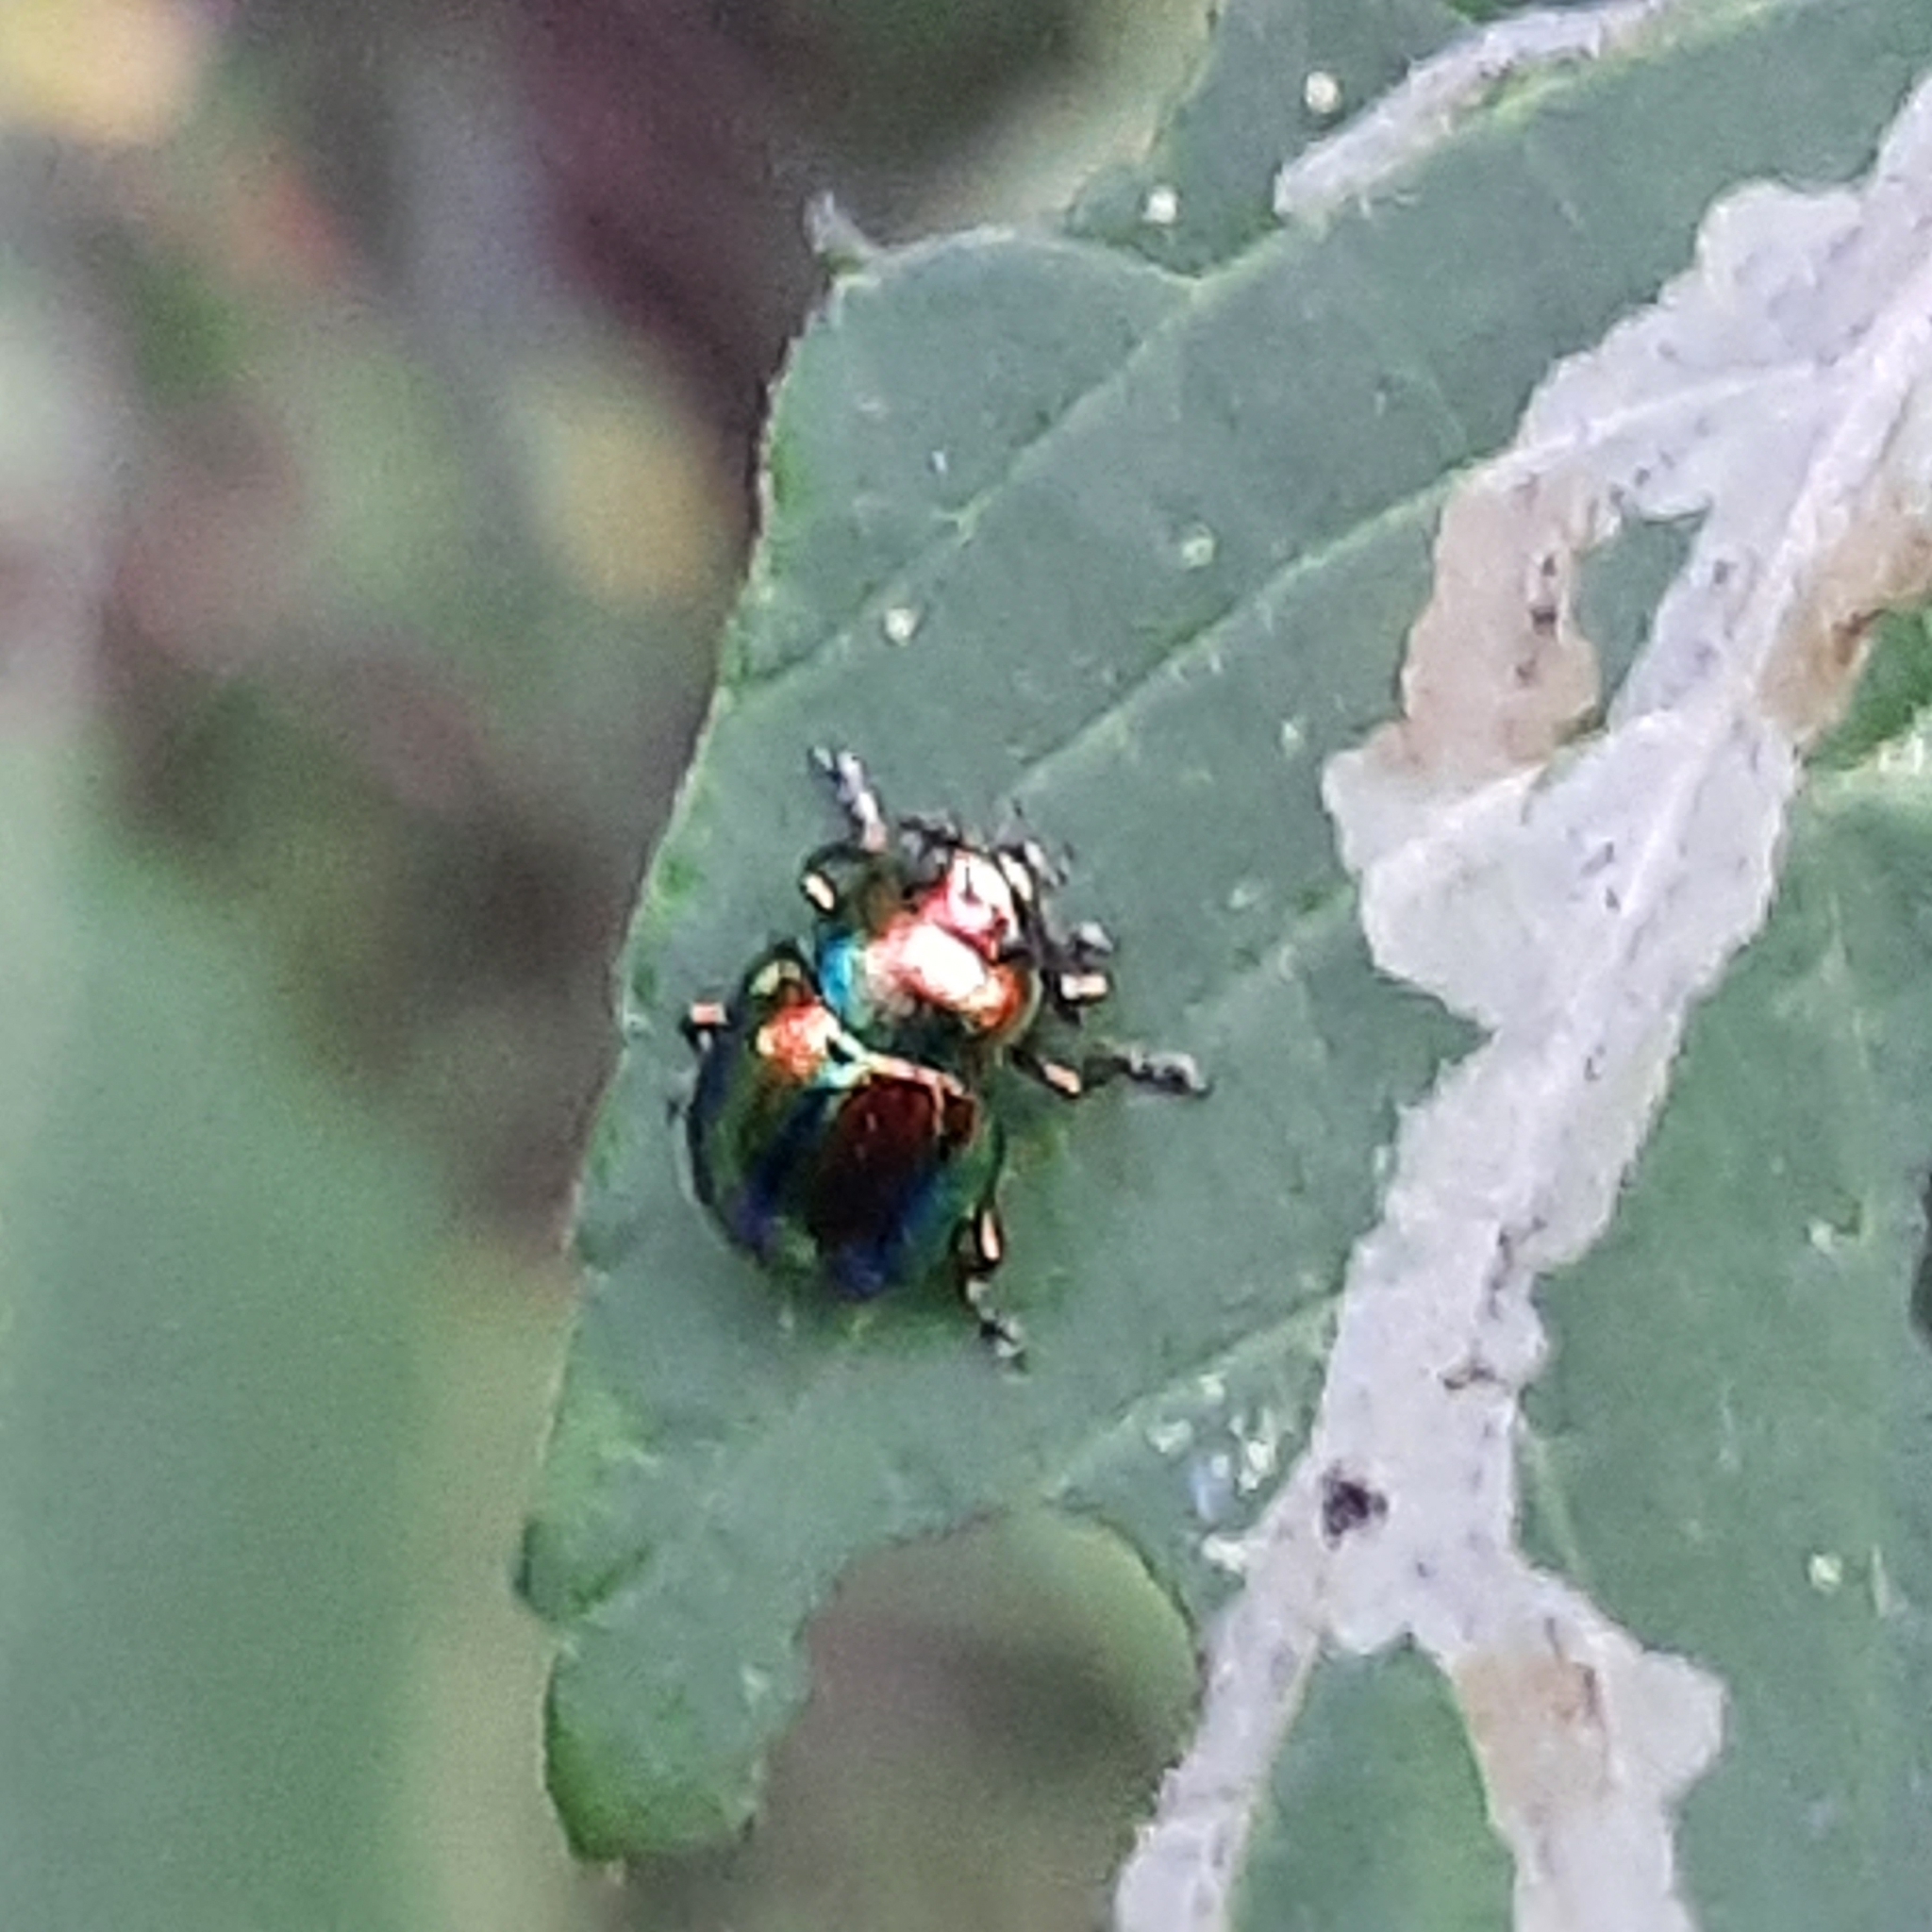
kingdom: Animalia
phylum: Arthropoda
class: Insecta
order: Coleoptera
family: Chrysomelidae
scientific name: Chrysomelidae
